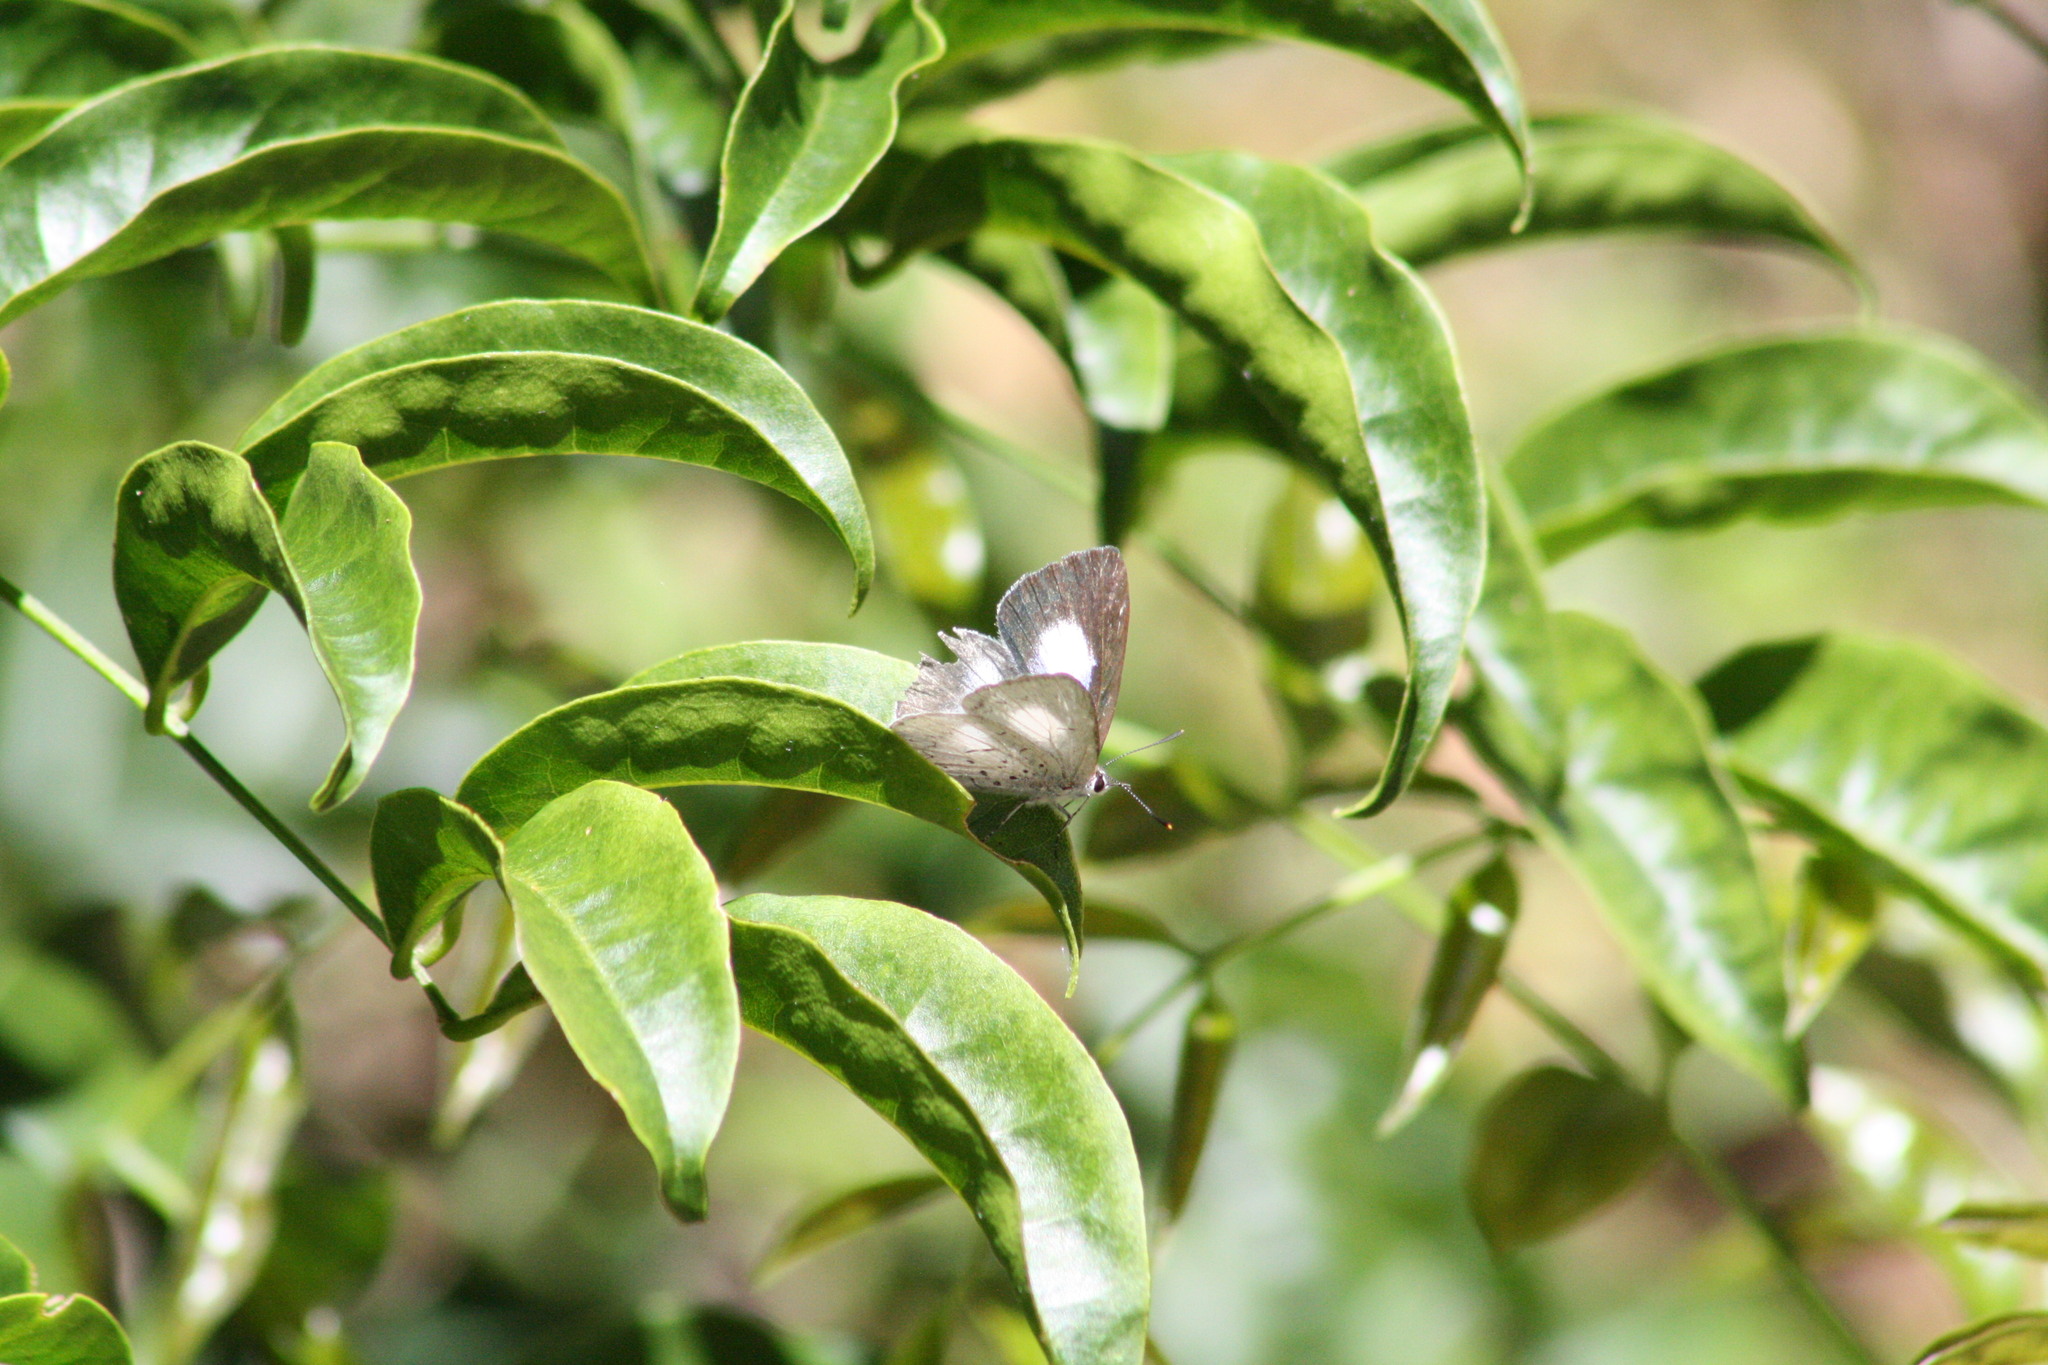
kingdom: Animalia
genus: Eirmocides
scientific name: Eirmocides
